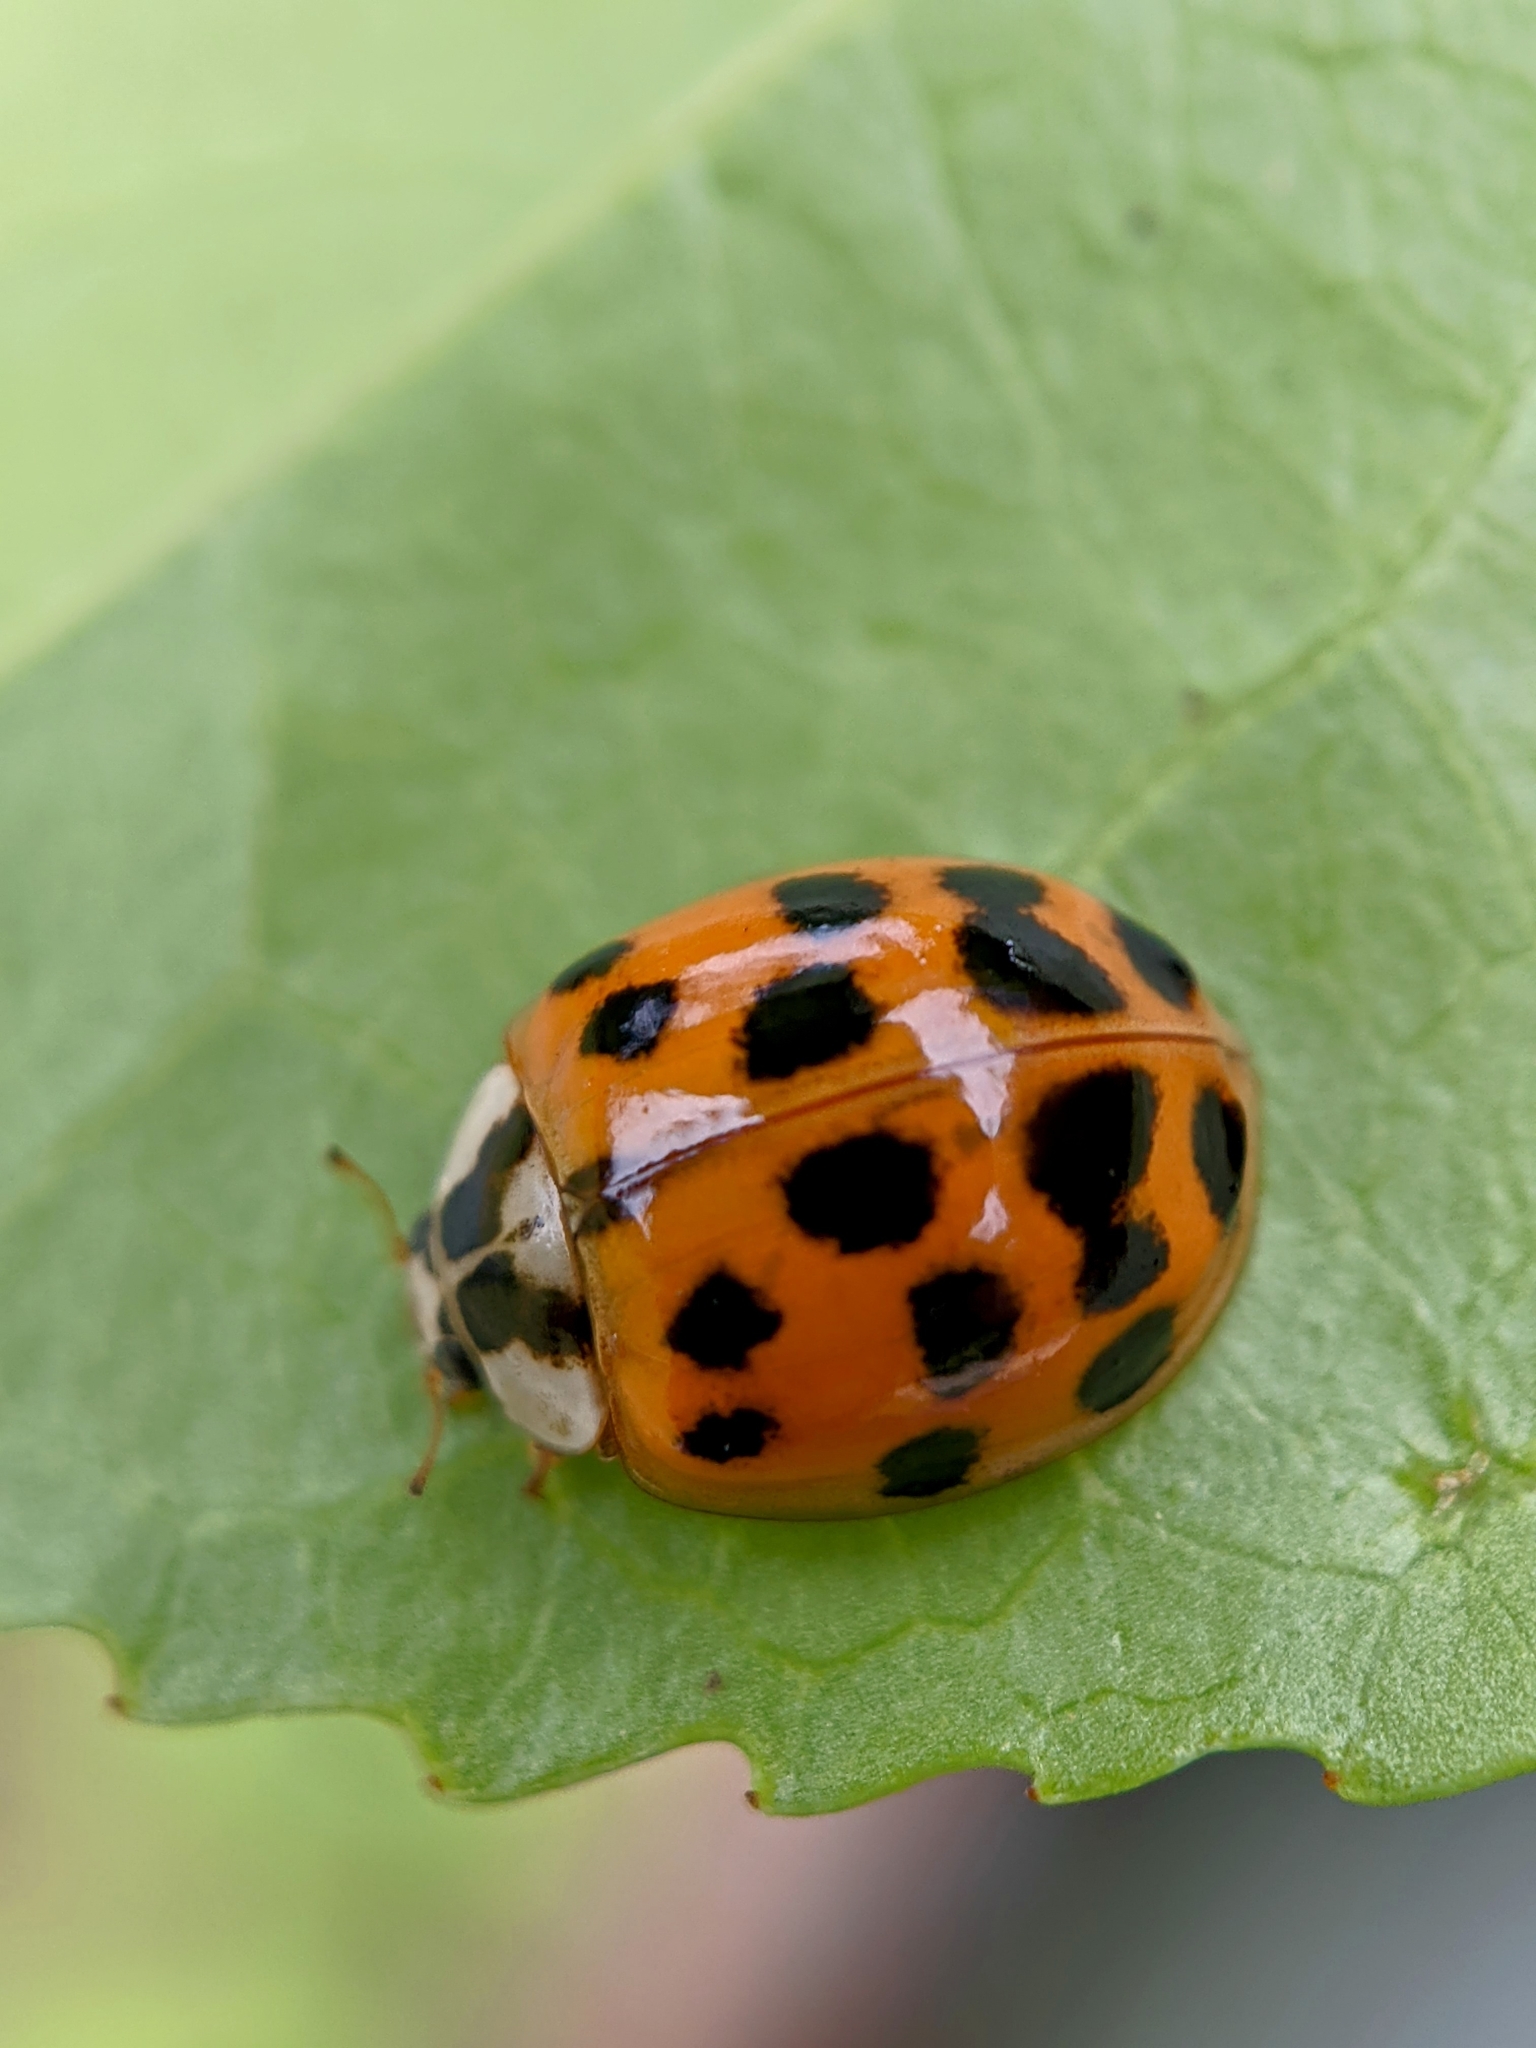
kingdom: Animalia
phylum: Arthropoda
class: Insecta
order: Coleoptera
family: Coccinellidae
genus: Harmonia
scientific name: Harmonia axyridis
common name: Harlequin ladybird
